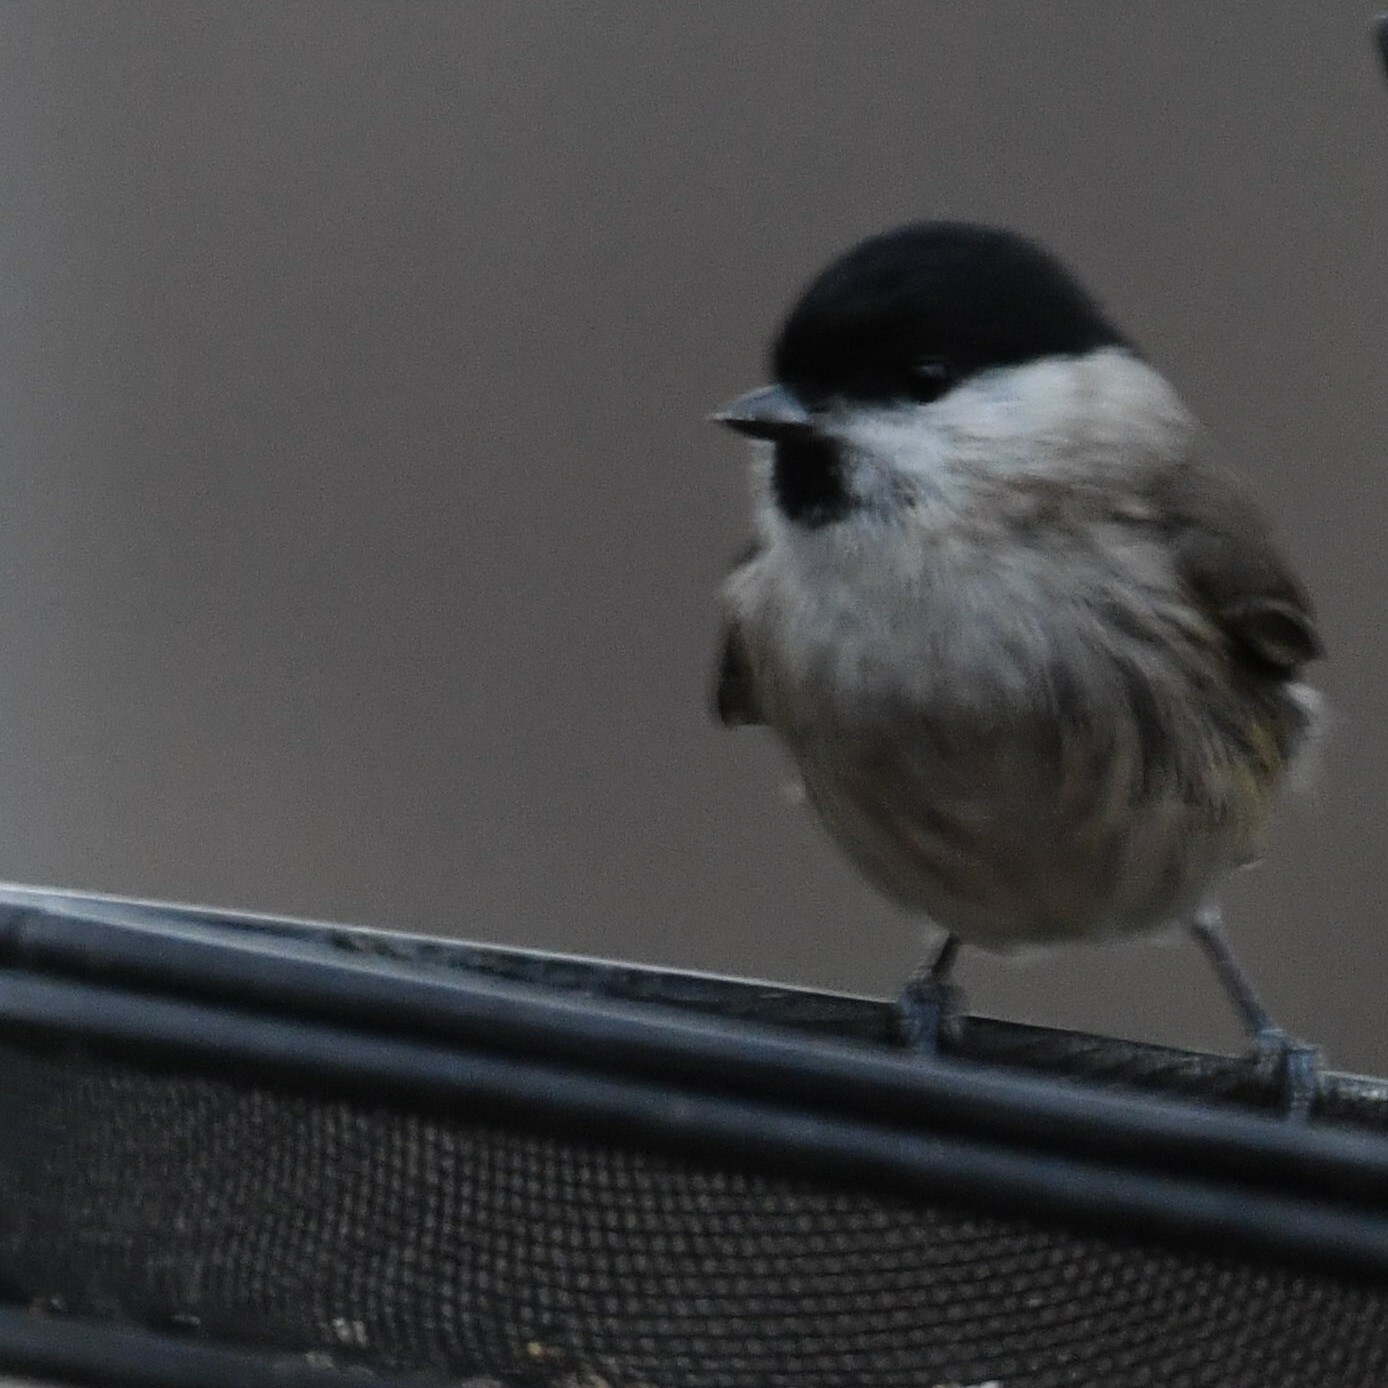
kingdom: Animalia
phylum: Chordata
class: Aves
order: Passeriformes
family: Paridae
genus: Poecile
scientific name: Poecile montanus
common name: Willow tit
